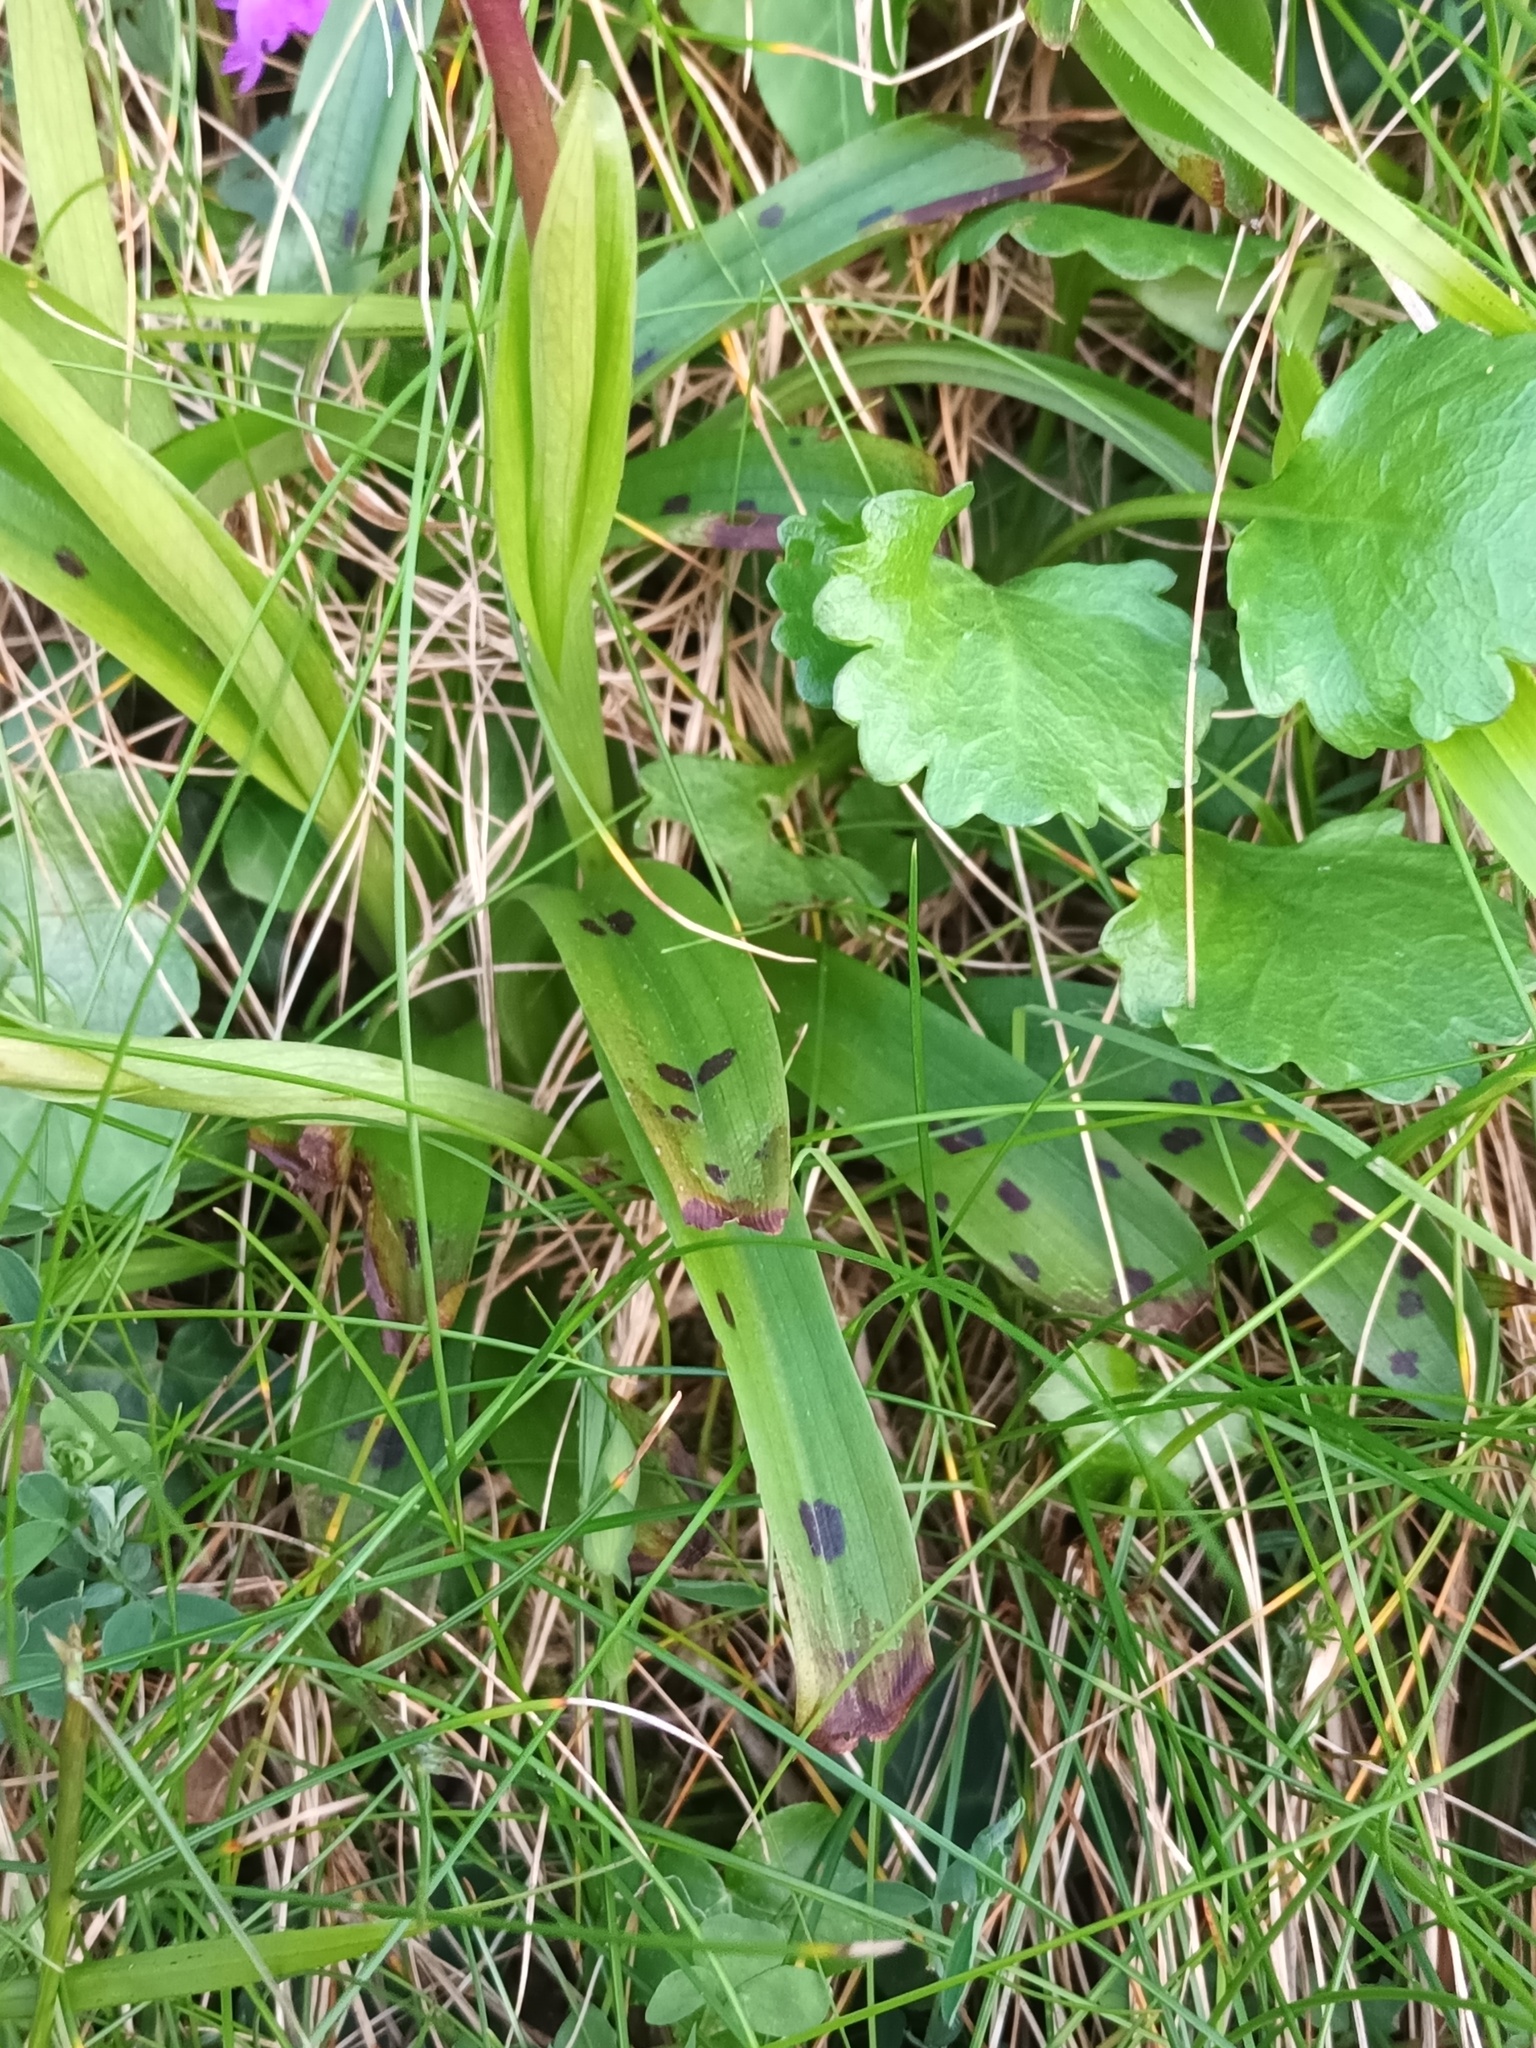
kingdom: Plantae
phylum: Tracheophyta
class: Liliopsida
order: Asparagales
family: Orchidaceae
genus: Orchis
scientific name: Orchis mascula
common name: Early-purple orchid
